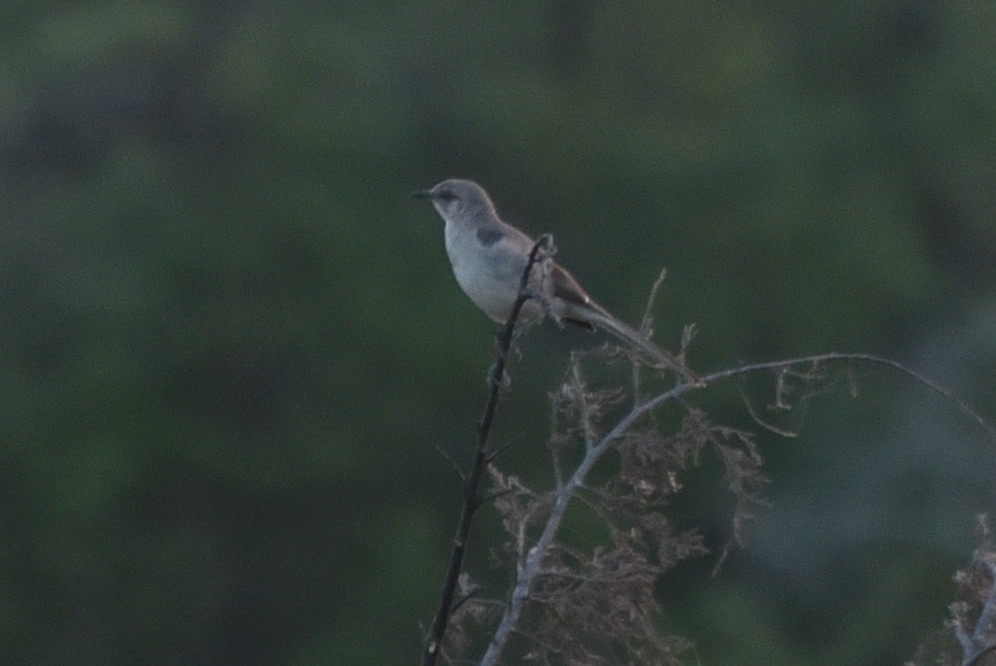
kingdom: Animalia
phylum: Chordata
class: Aves
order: Passeriformes
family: Mimidae
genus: Mimus
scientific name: Mimus polyglottos
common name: Northern mockingbird
